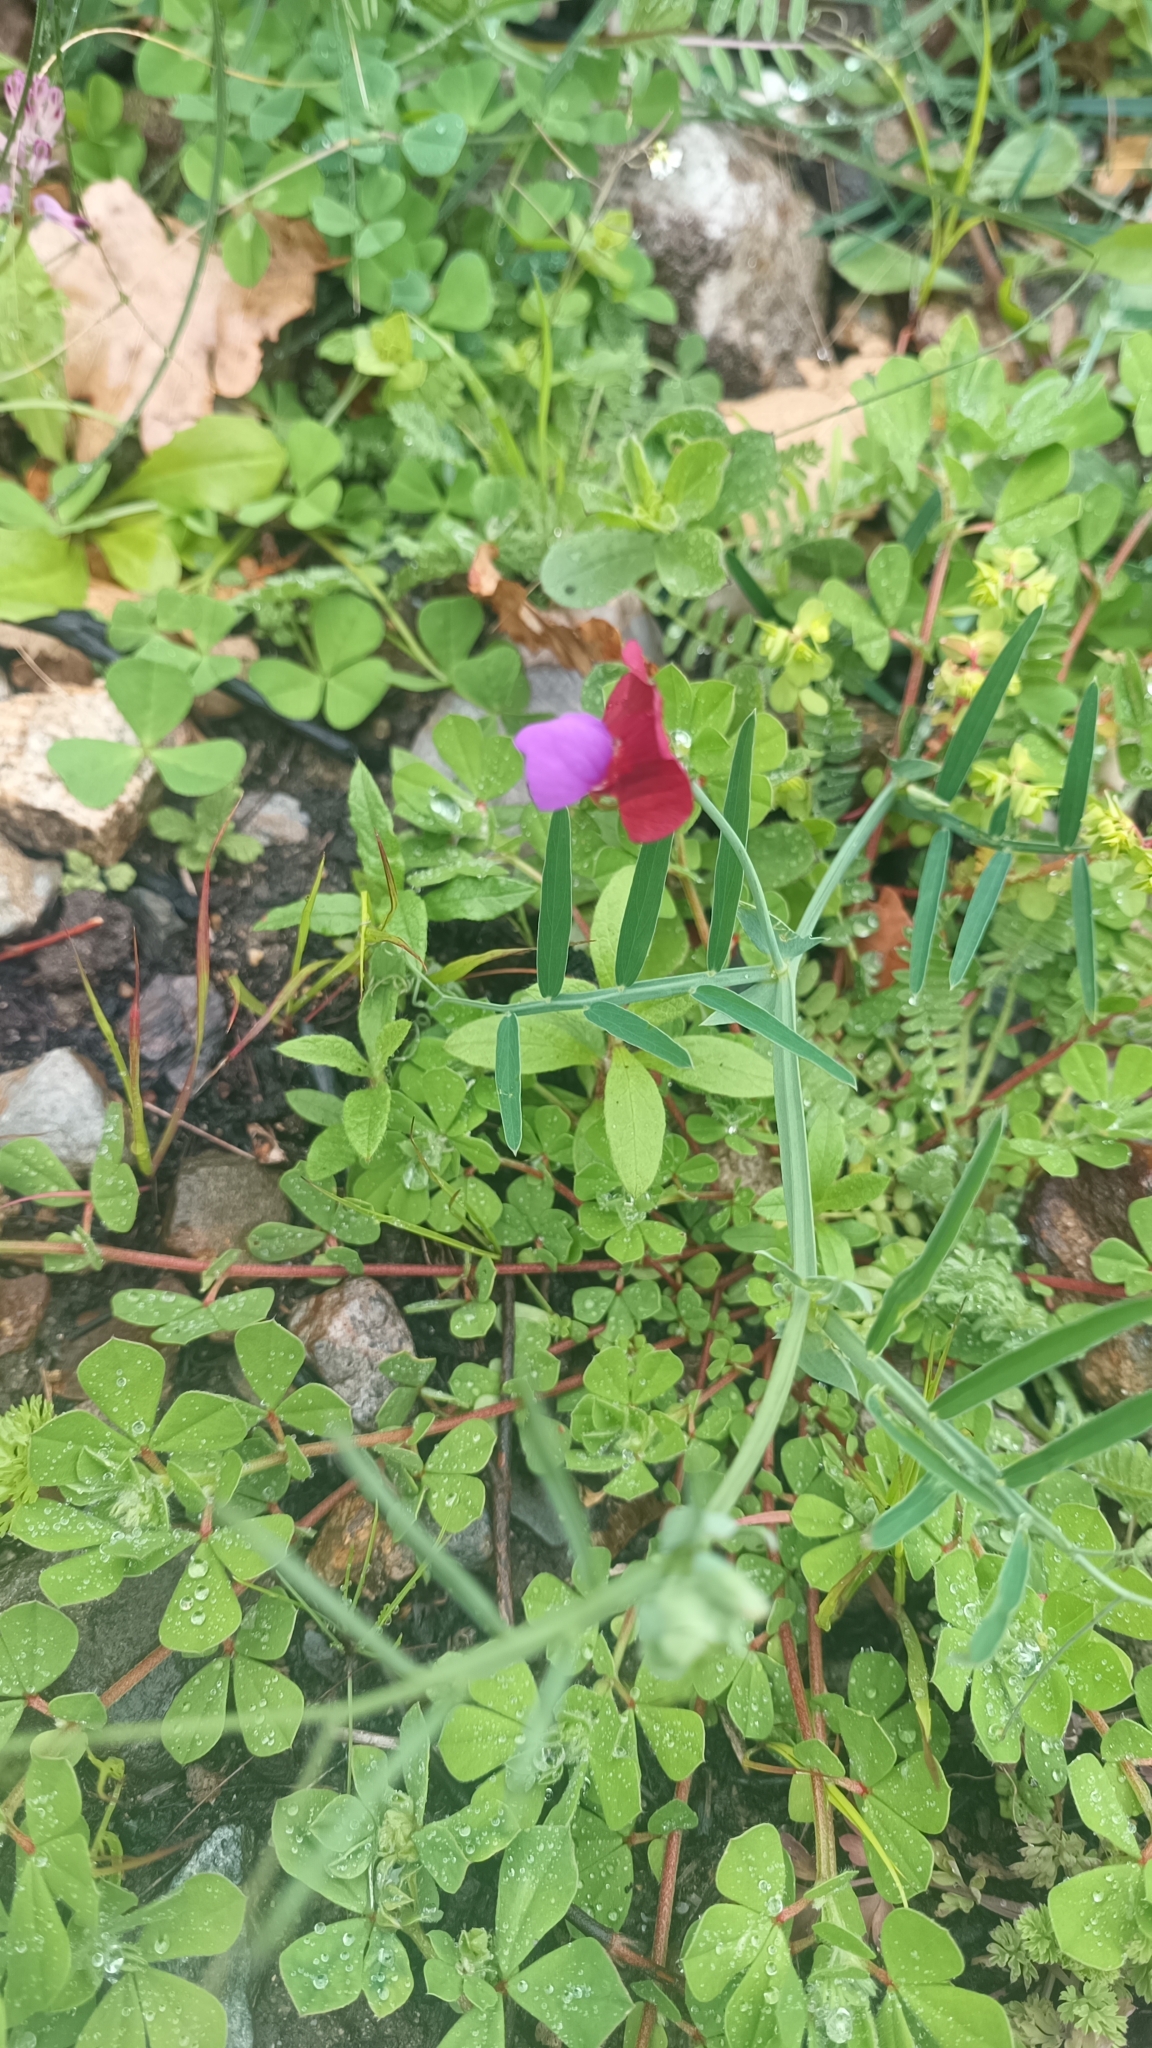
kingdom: Plantae
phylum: Tracheophyta
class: Magnoliopsida
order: Fabales
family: Fabaceae
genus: Lathyrus
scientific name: Lathyrus clymenum
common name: Spanish vetchling
